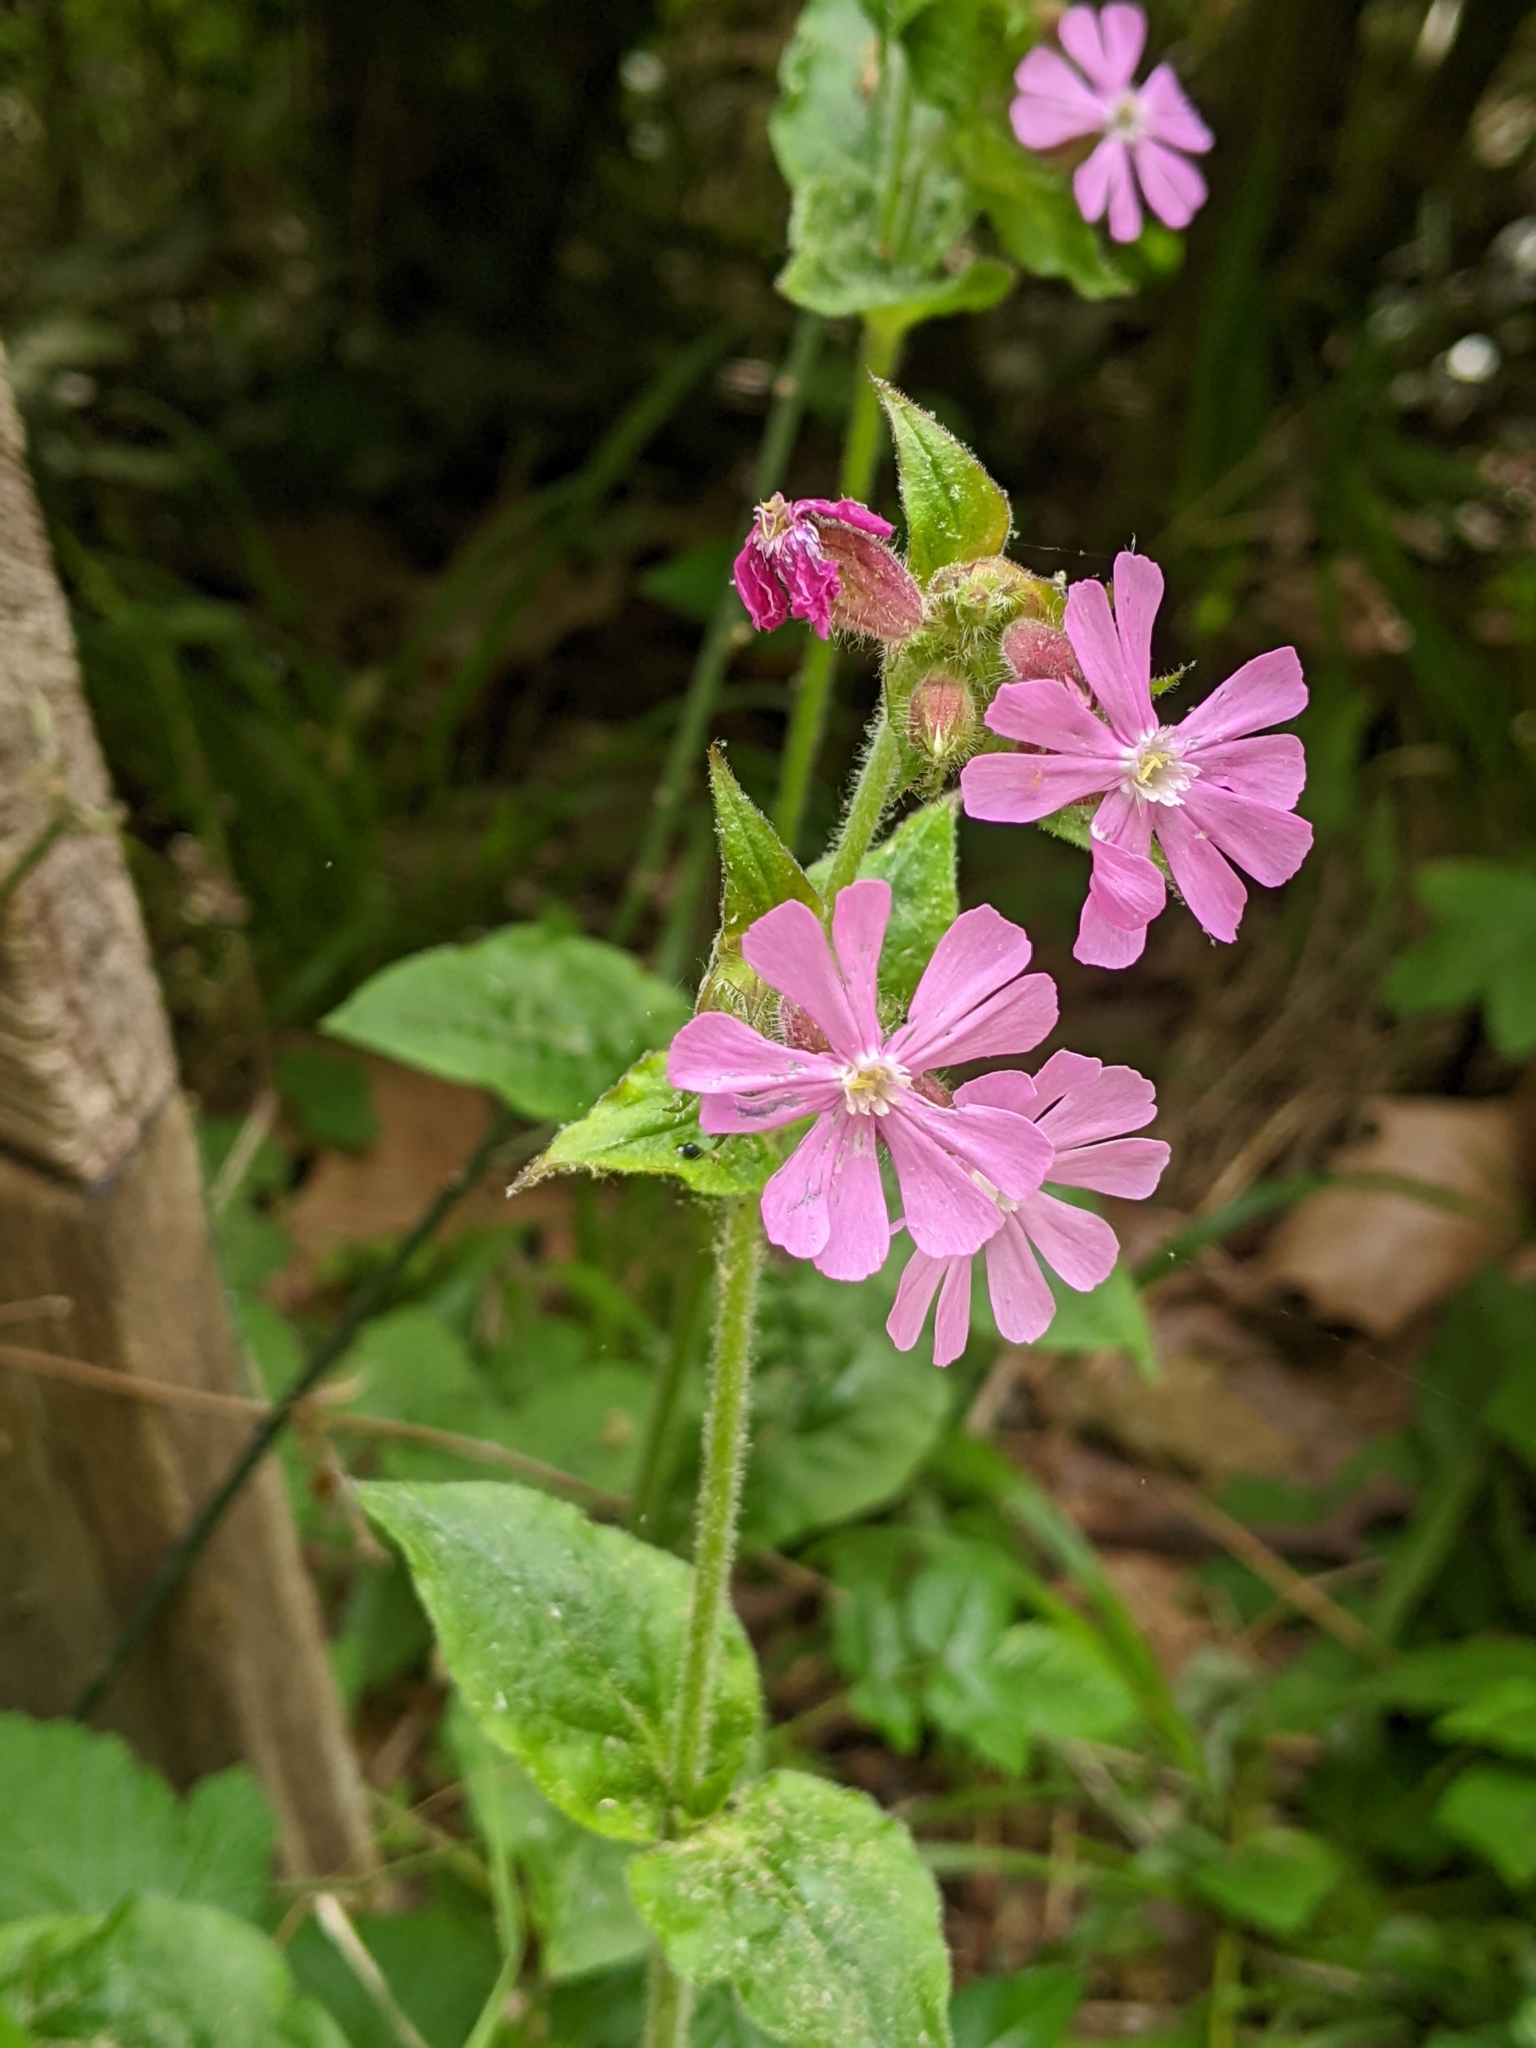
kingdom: Plantae
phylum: Tracheophyta
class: Magnoliopsida
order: Caryophyllales
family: Caryophyllaceae
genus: Silene
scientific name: Silene dioica
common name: Red campion
